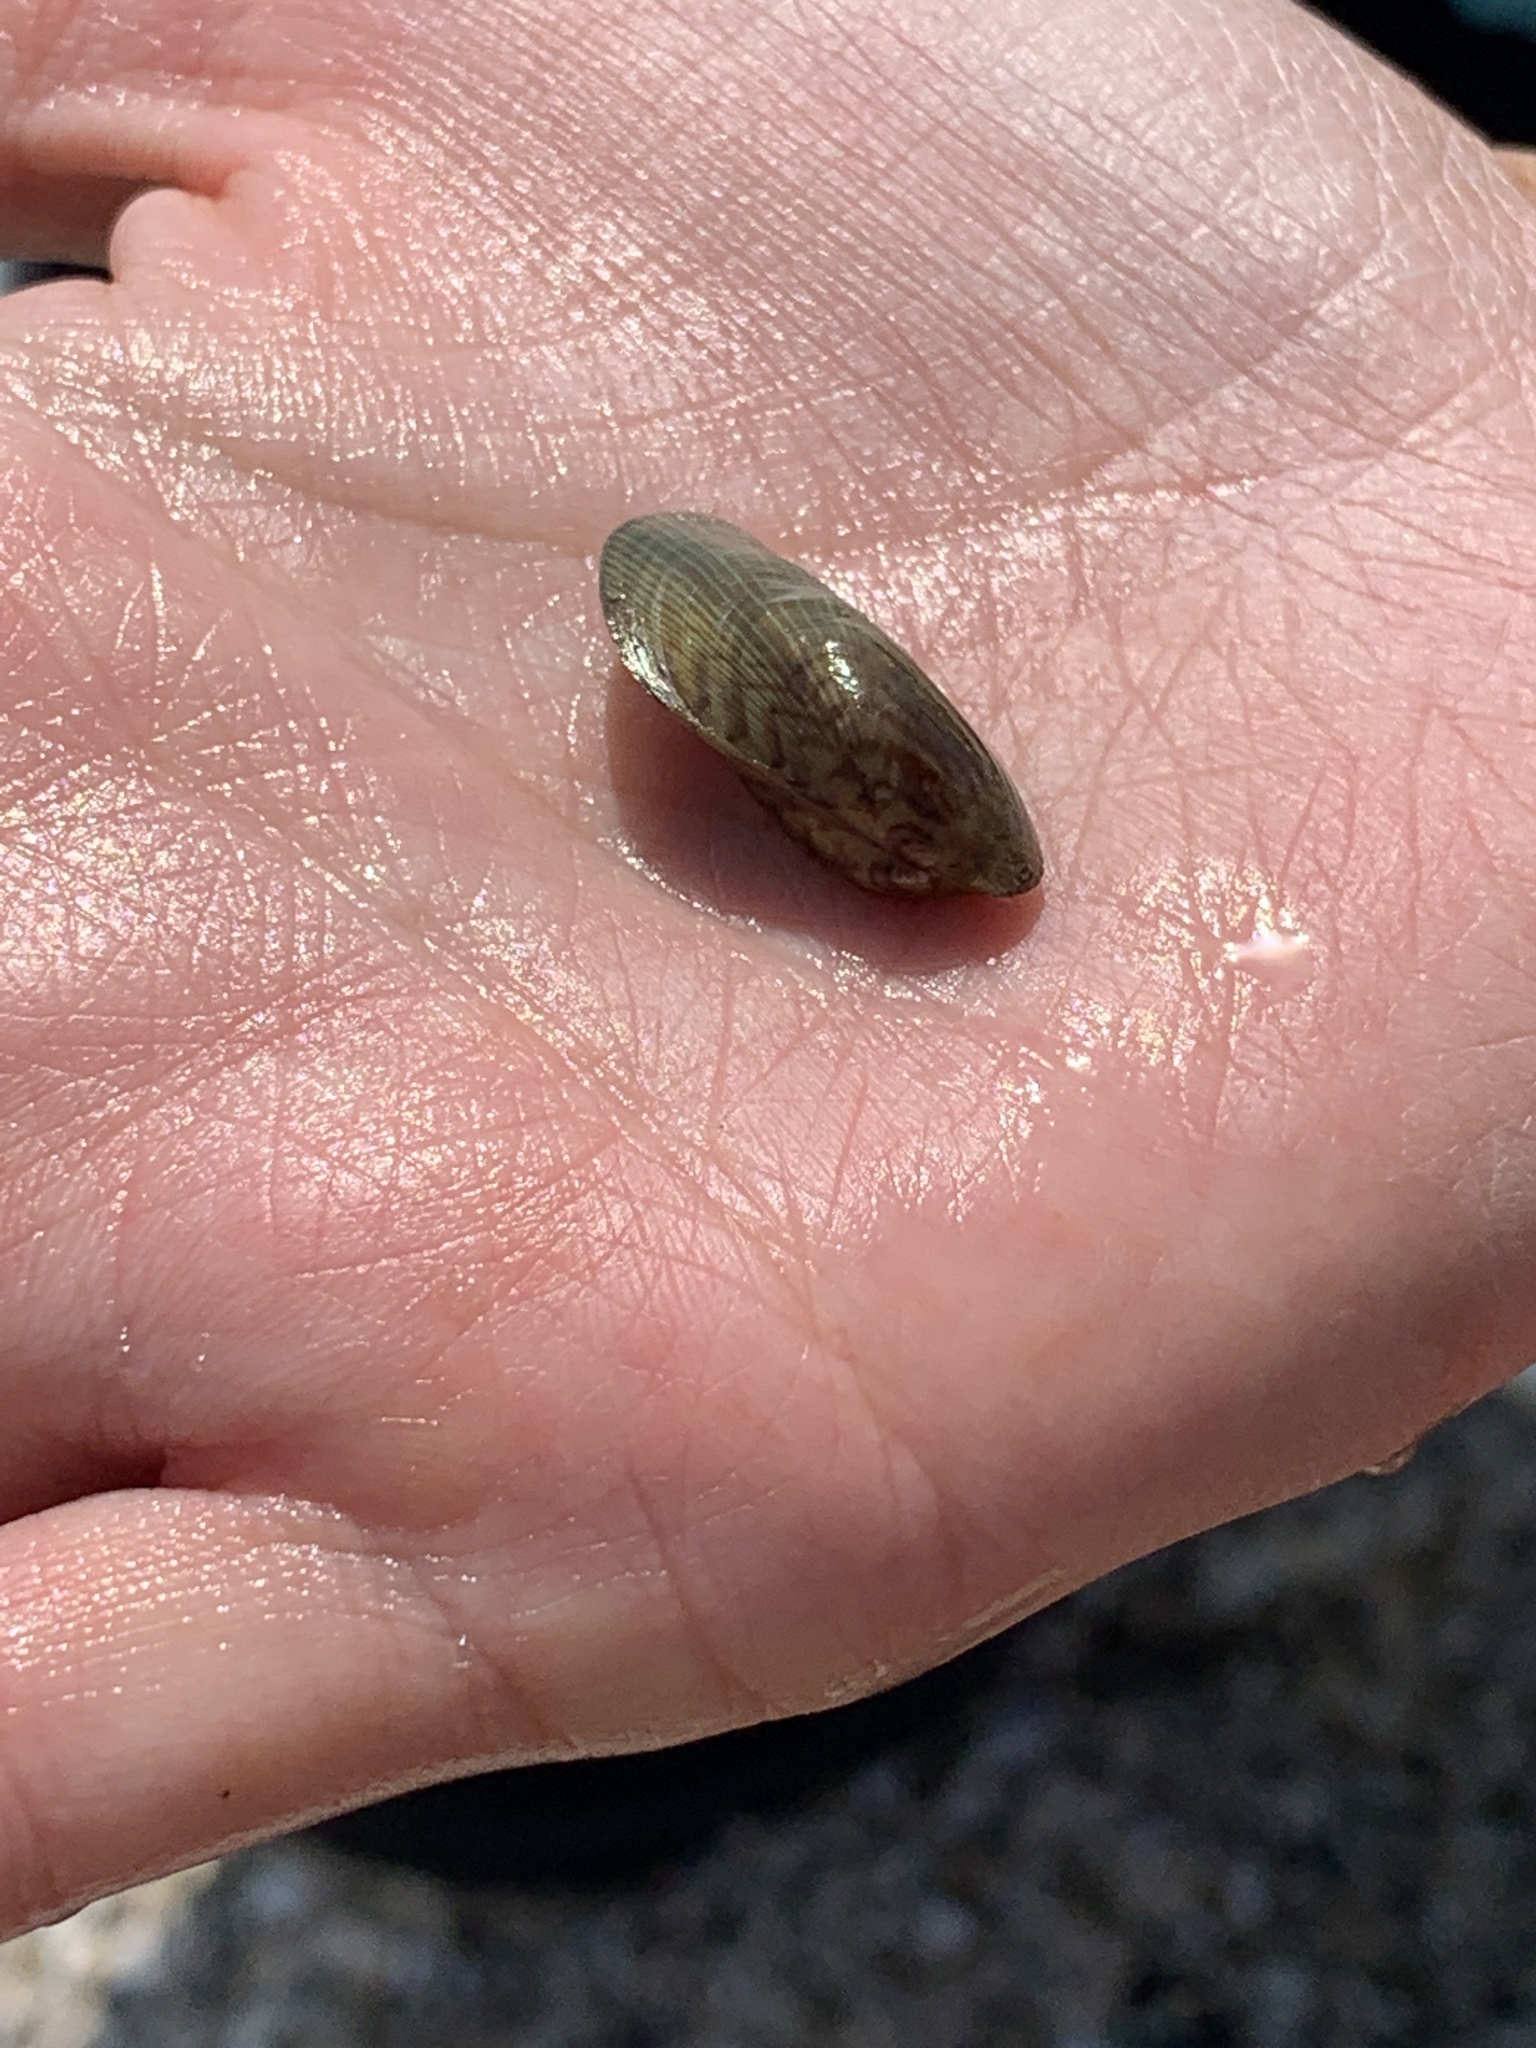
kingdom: Animalia
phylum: Mollusca
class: Bivalvia
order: Mytilida
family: Mytilidae
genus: Arcuatula
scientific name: Arcuatula senhousia
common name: Asian mussel
